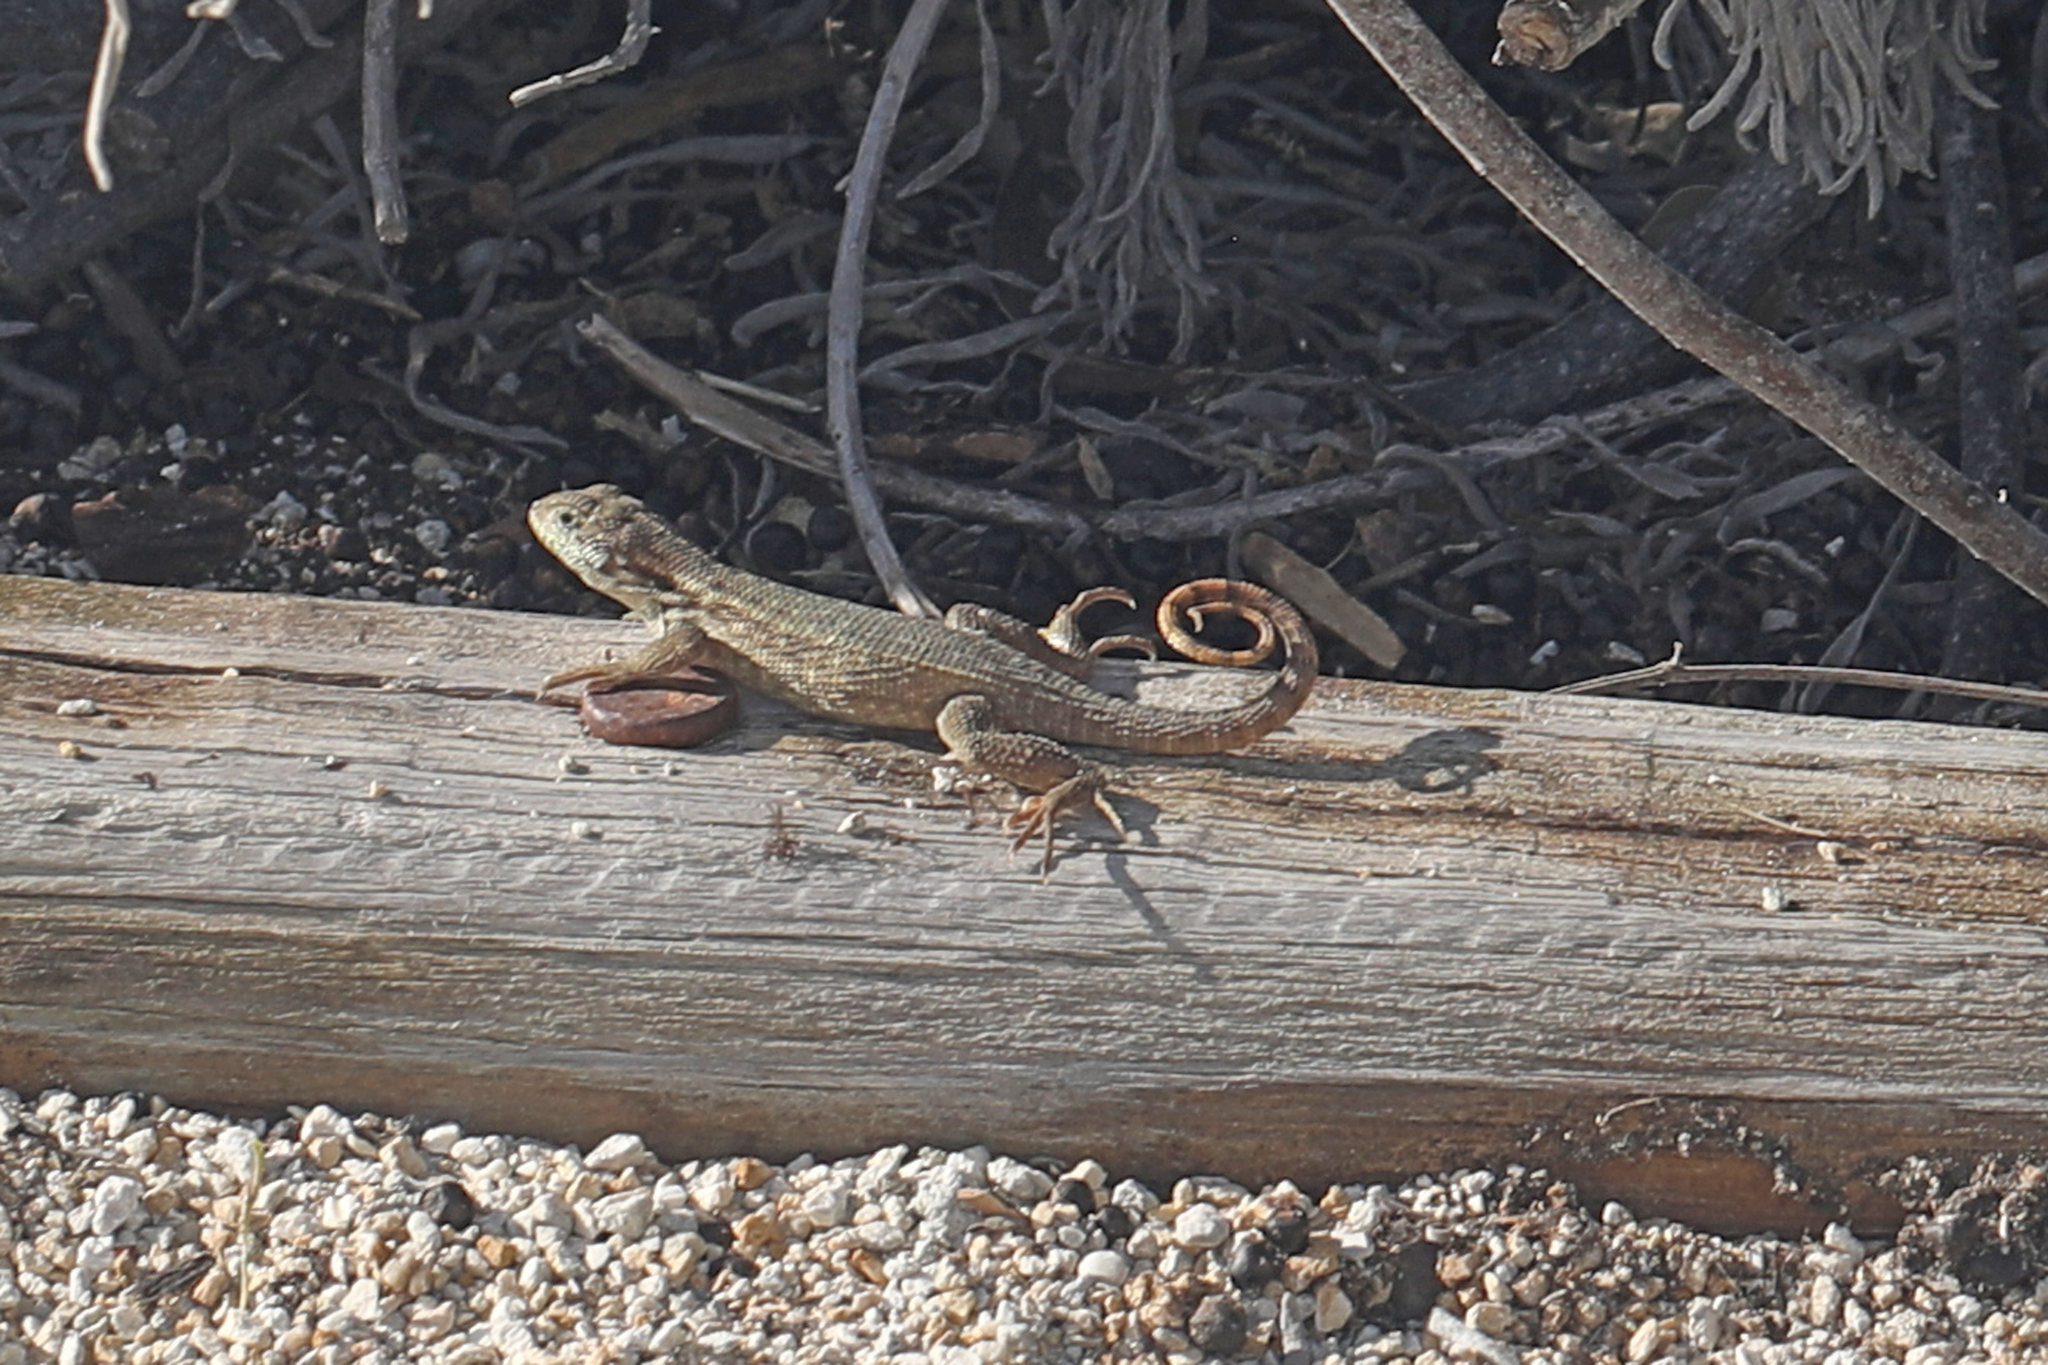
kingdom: Animalia
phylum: Chordata
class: Squamata
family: Leiocephalidae
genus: Leiocephalus
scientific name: Leiocephalus carinatus
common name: Northern curly-tailed lizard
